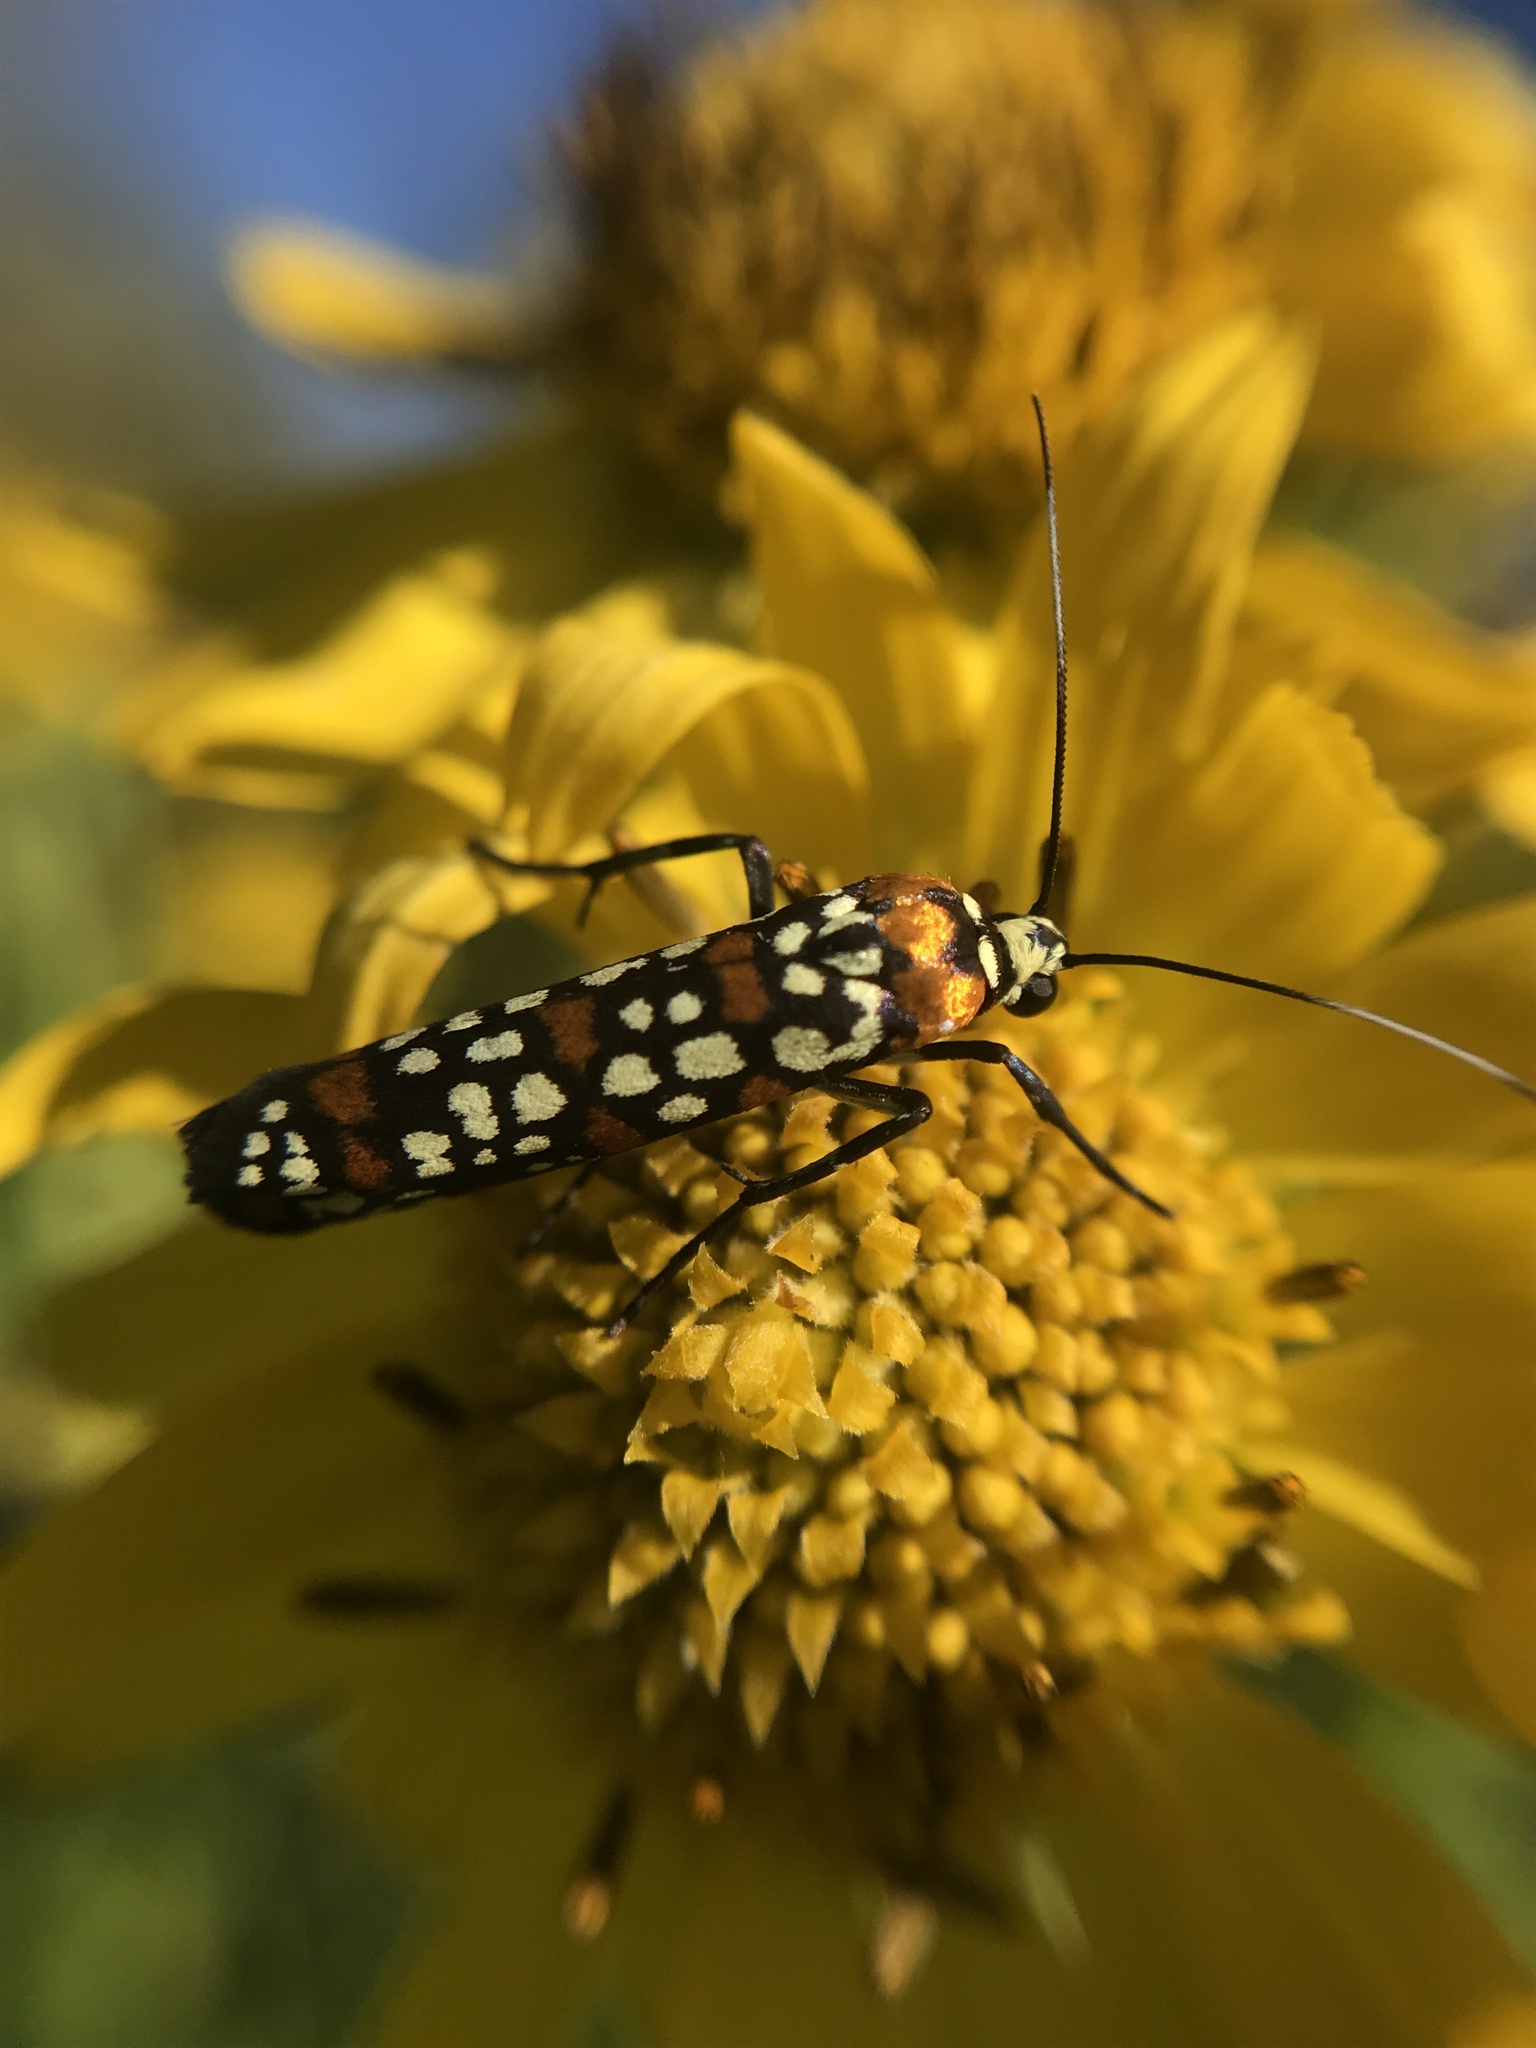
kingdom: Animalia
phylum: Arthropoda
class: Insecta
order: Lepidoptera
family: Attevidae
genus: Atteva
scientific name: Atteva punctella
